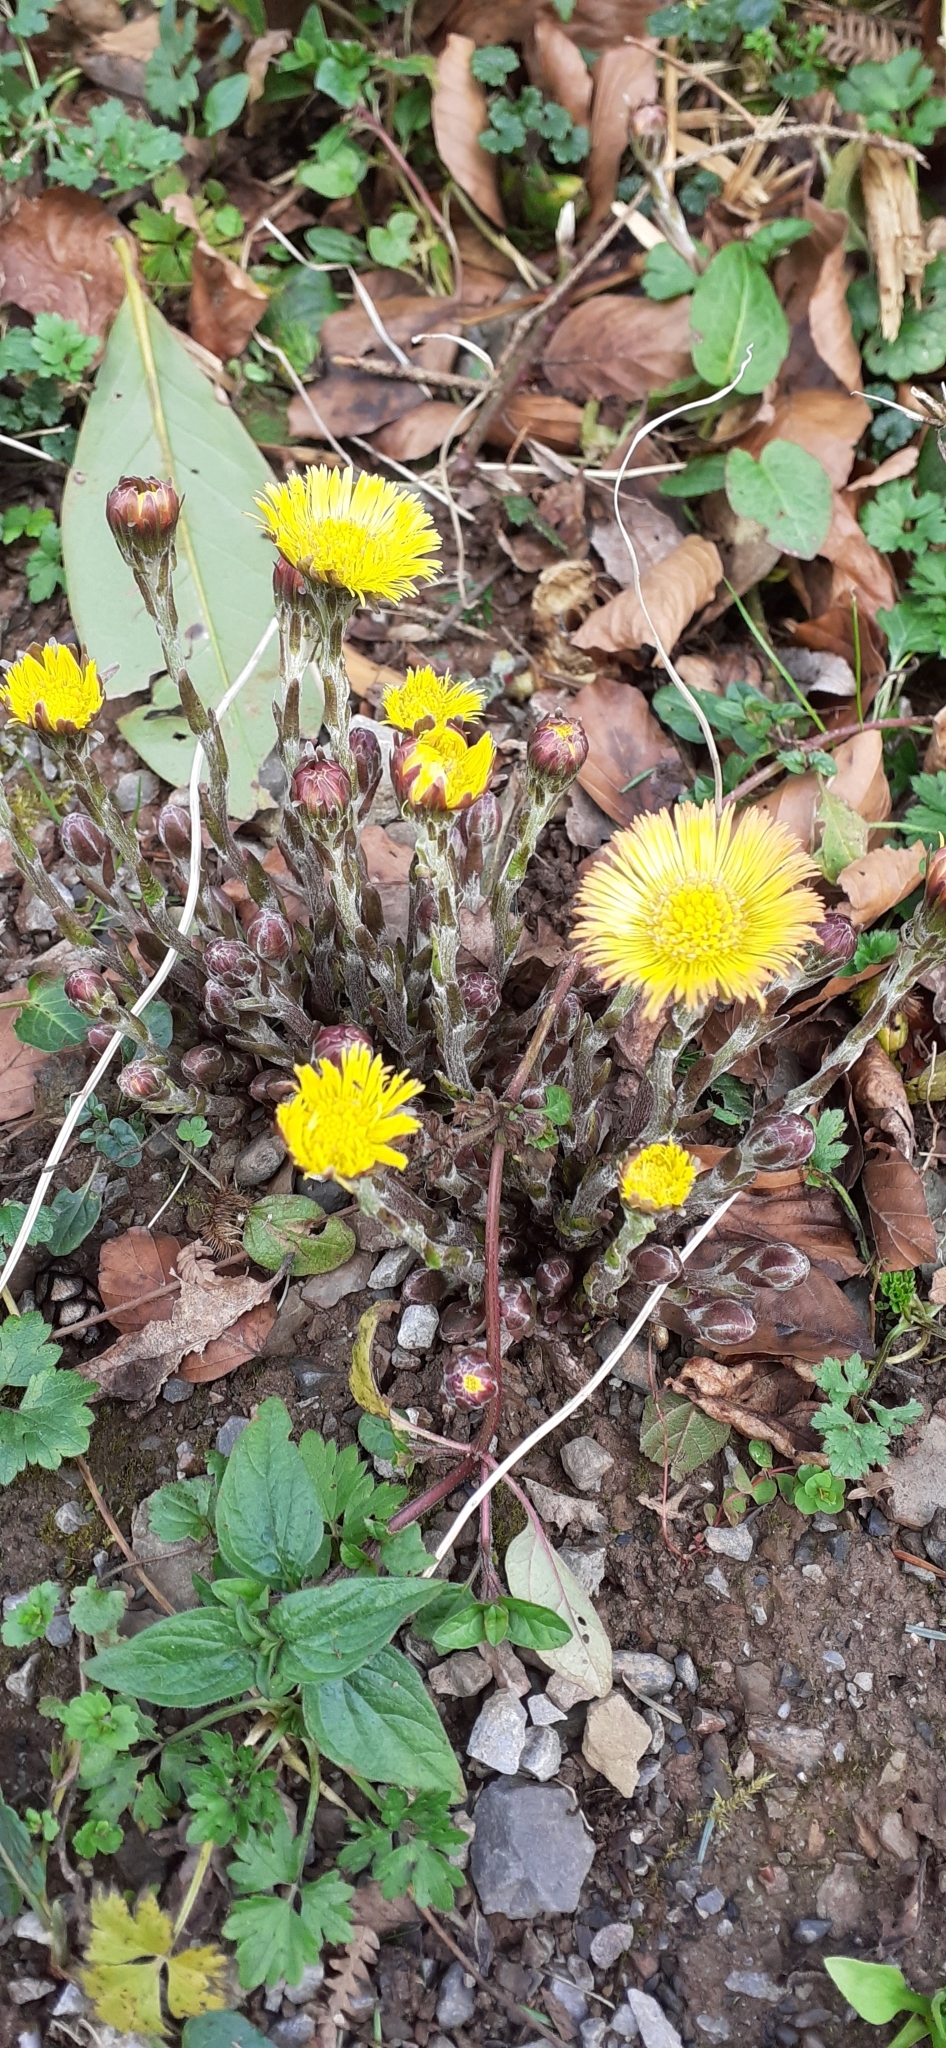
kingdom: Plantae
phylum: Tracheophyta
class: Magnoliopsida
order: Asterales
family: Asteraceae
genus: Tussilago
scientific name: Tussilago farfara
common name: Coltsfoot
